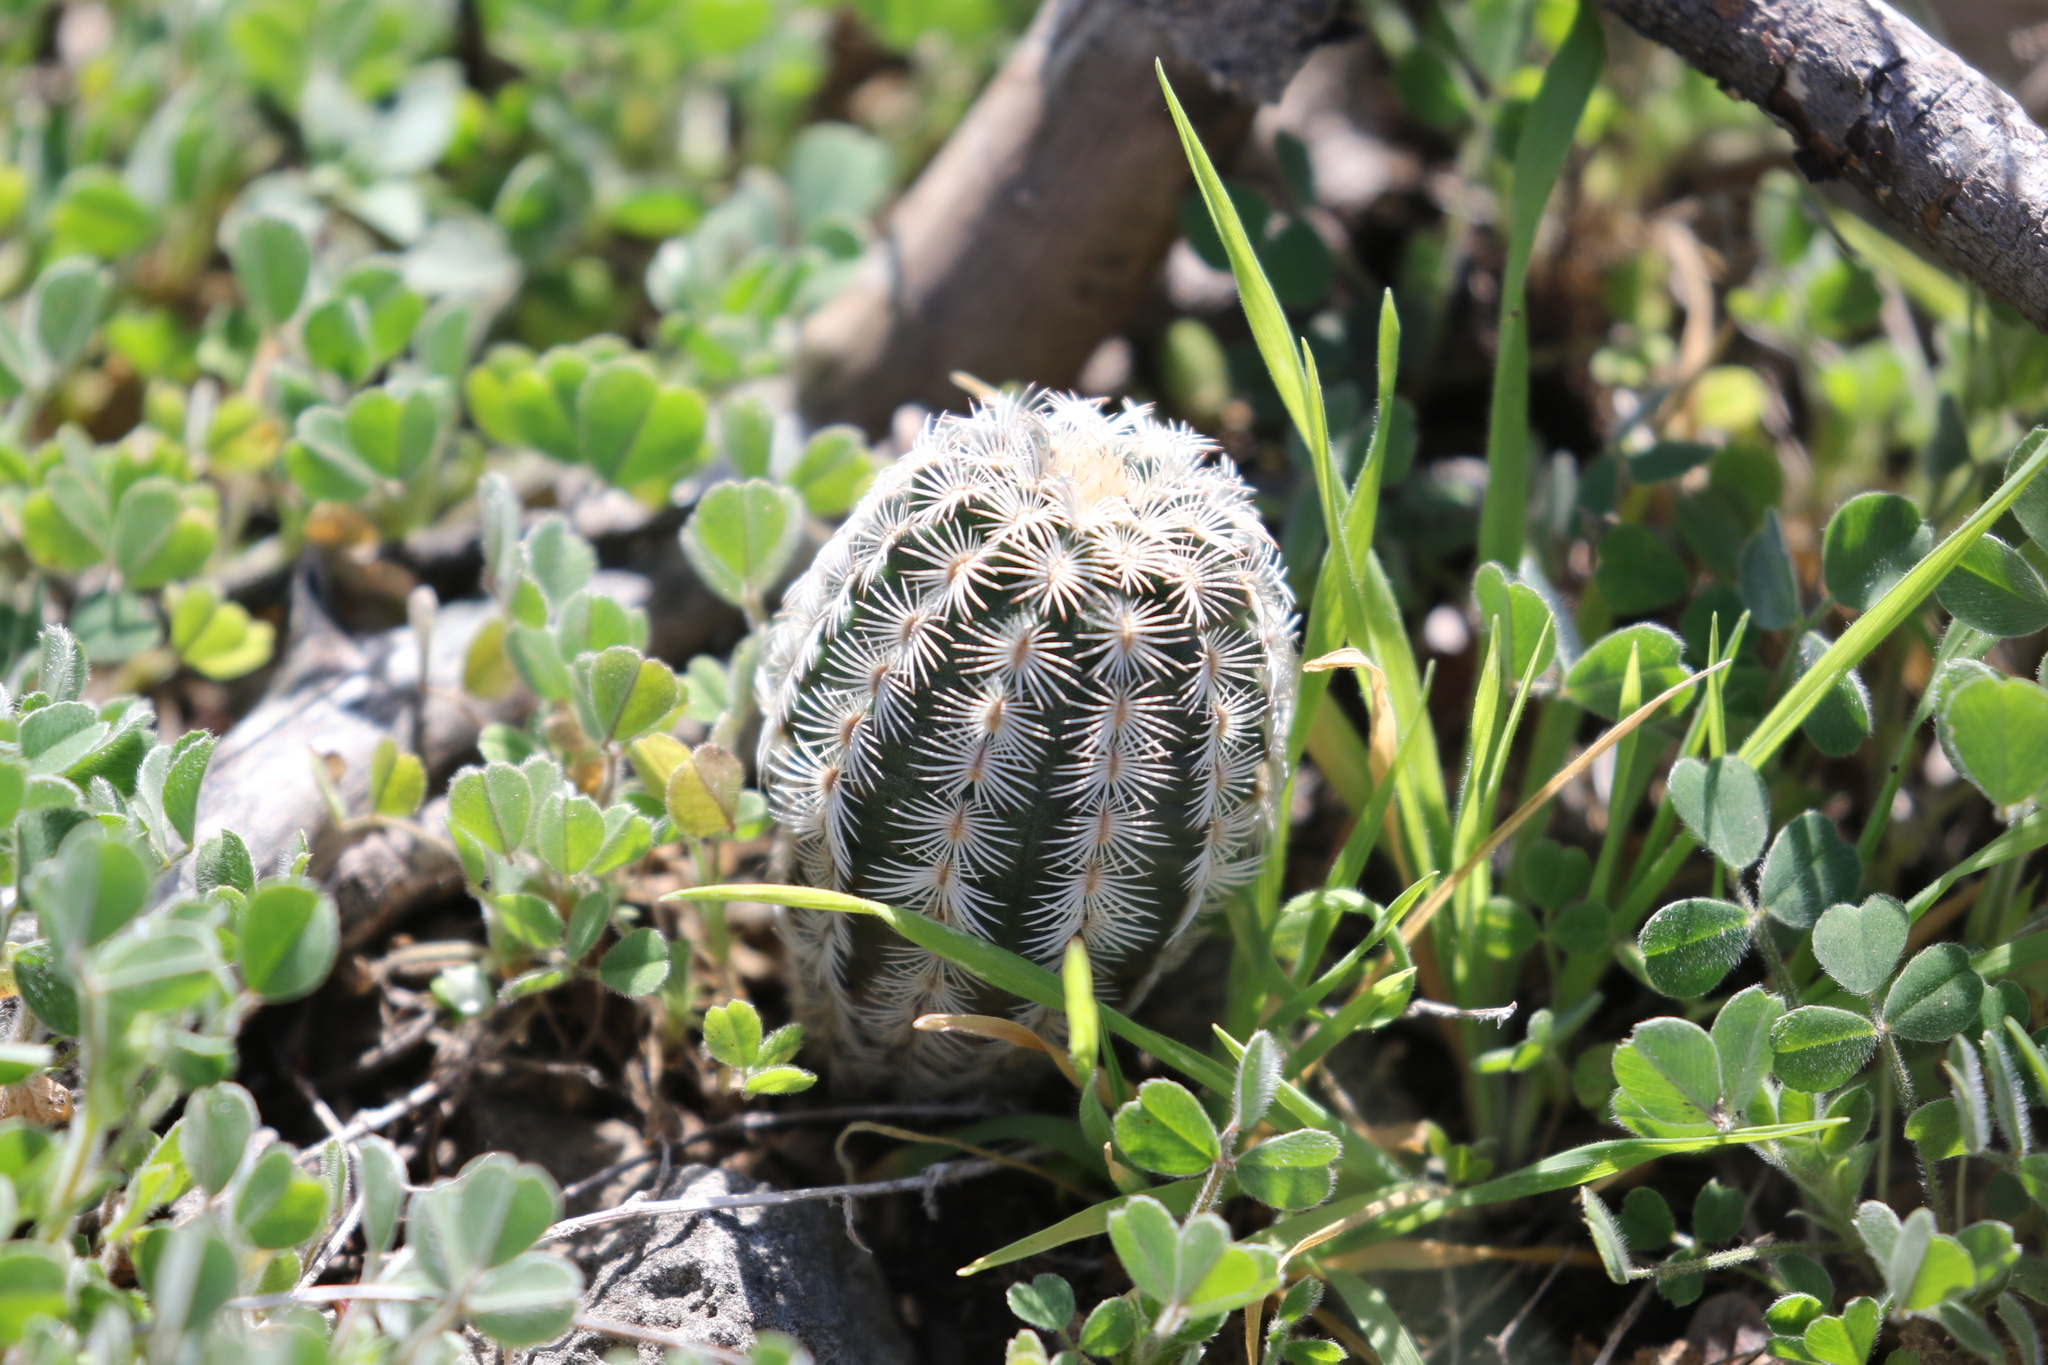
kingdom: Plantae
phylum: Tracheophyta
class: Magnoliopsida
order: Caryophyllales
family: Cactaceae
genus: Echinocereus
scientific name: Echinocereus reichenbachii
